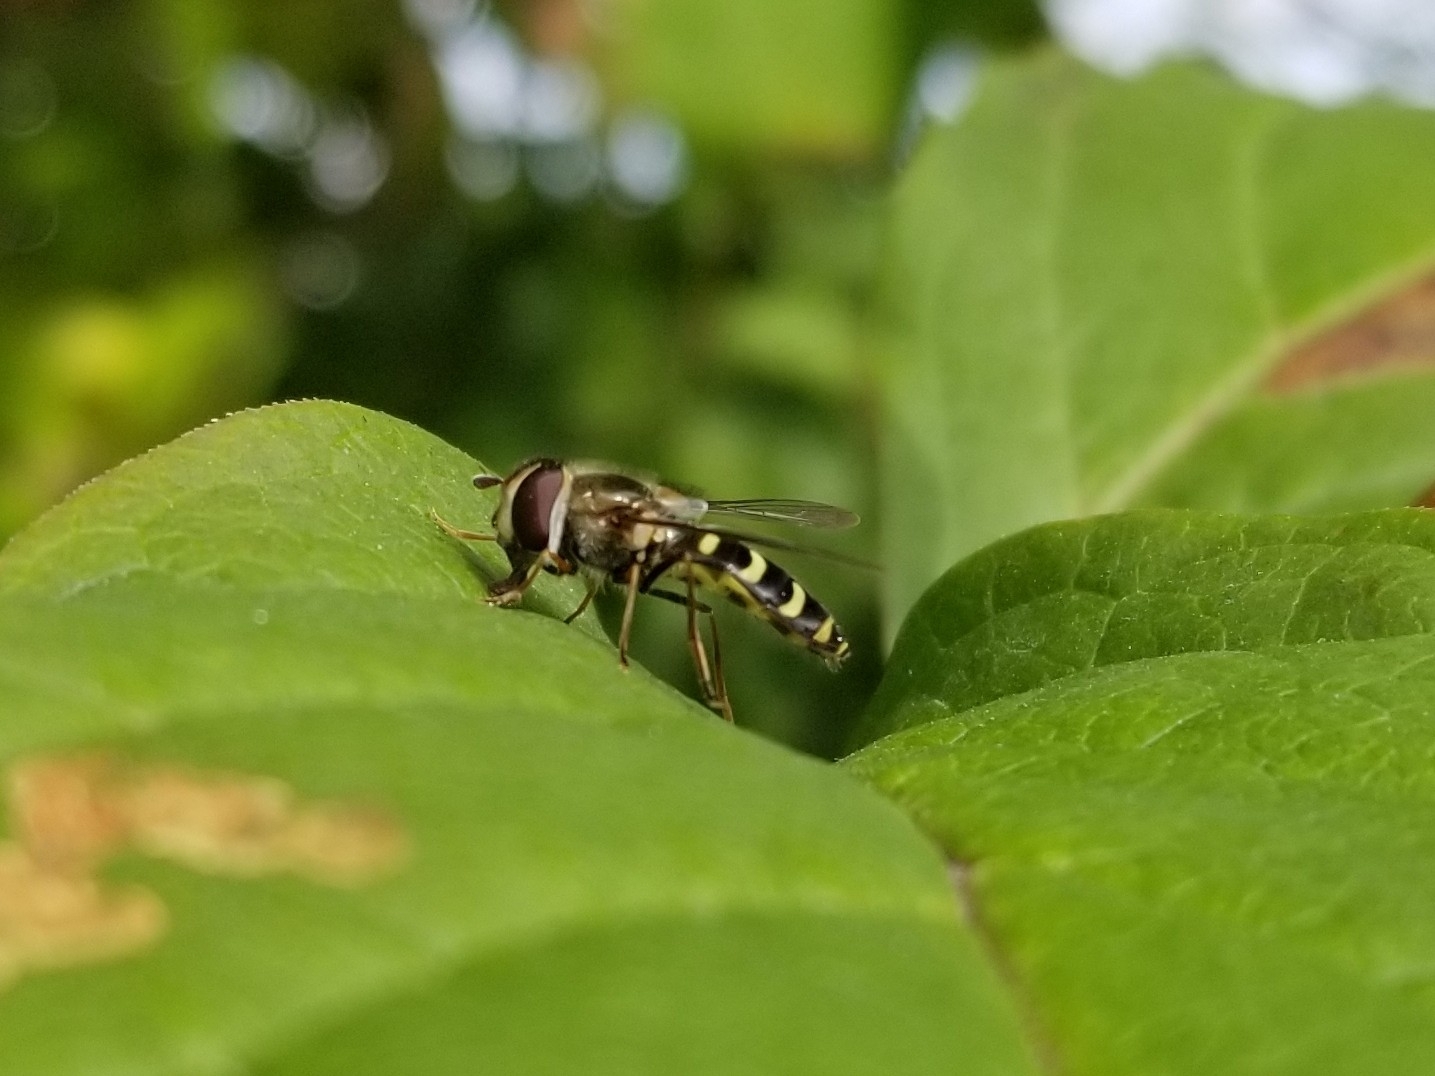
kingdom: Animalia
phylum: Arthropoda
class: Insecta
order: Diptera
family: Syrphidae
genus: Lapposyrphus
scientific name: Lapposyrphus lapponicus
